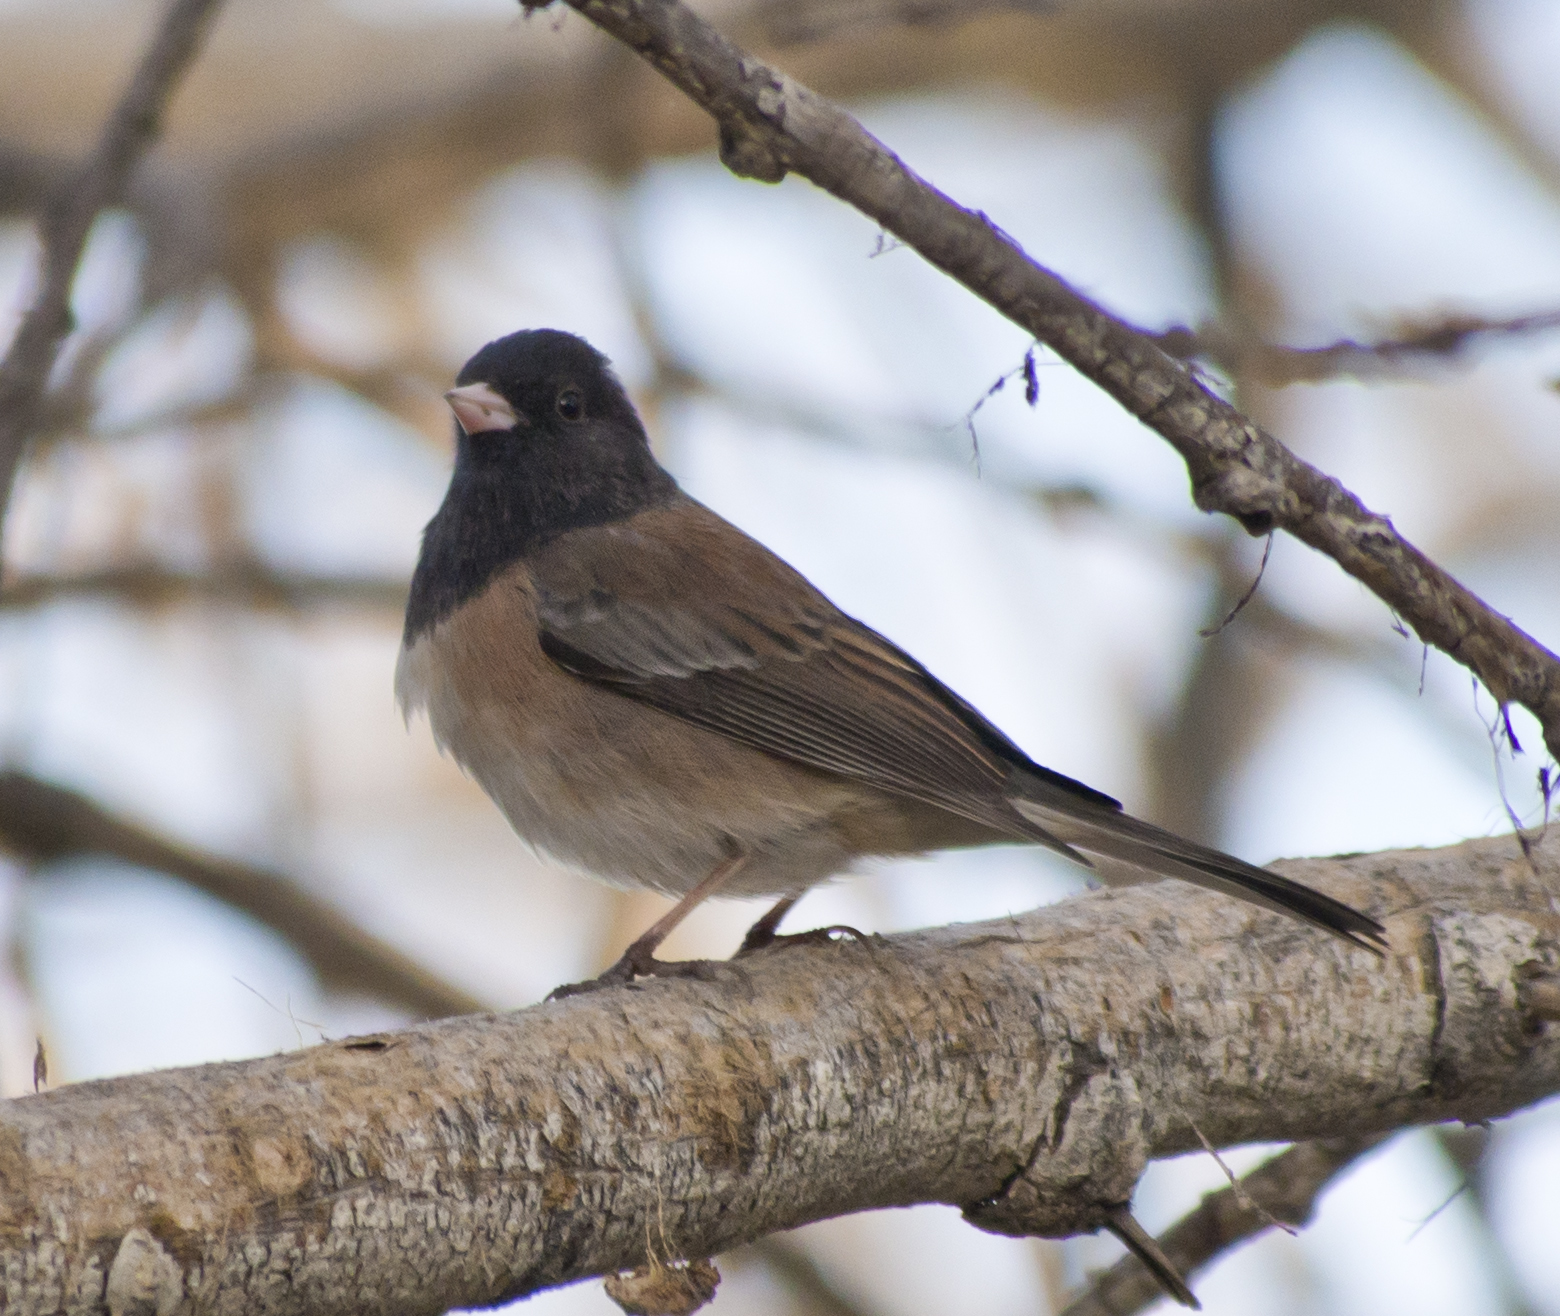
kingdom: Animalia
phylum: Chordata
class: Aves
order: Passeriformes
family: Passerellidae
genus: Junco
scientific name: Junco hyemalis
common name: Dark-eyed junco
